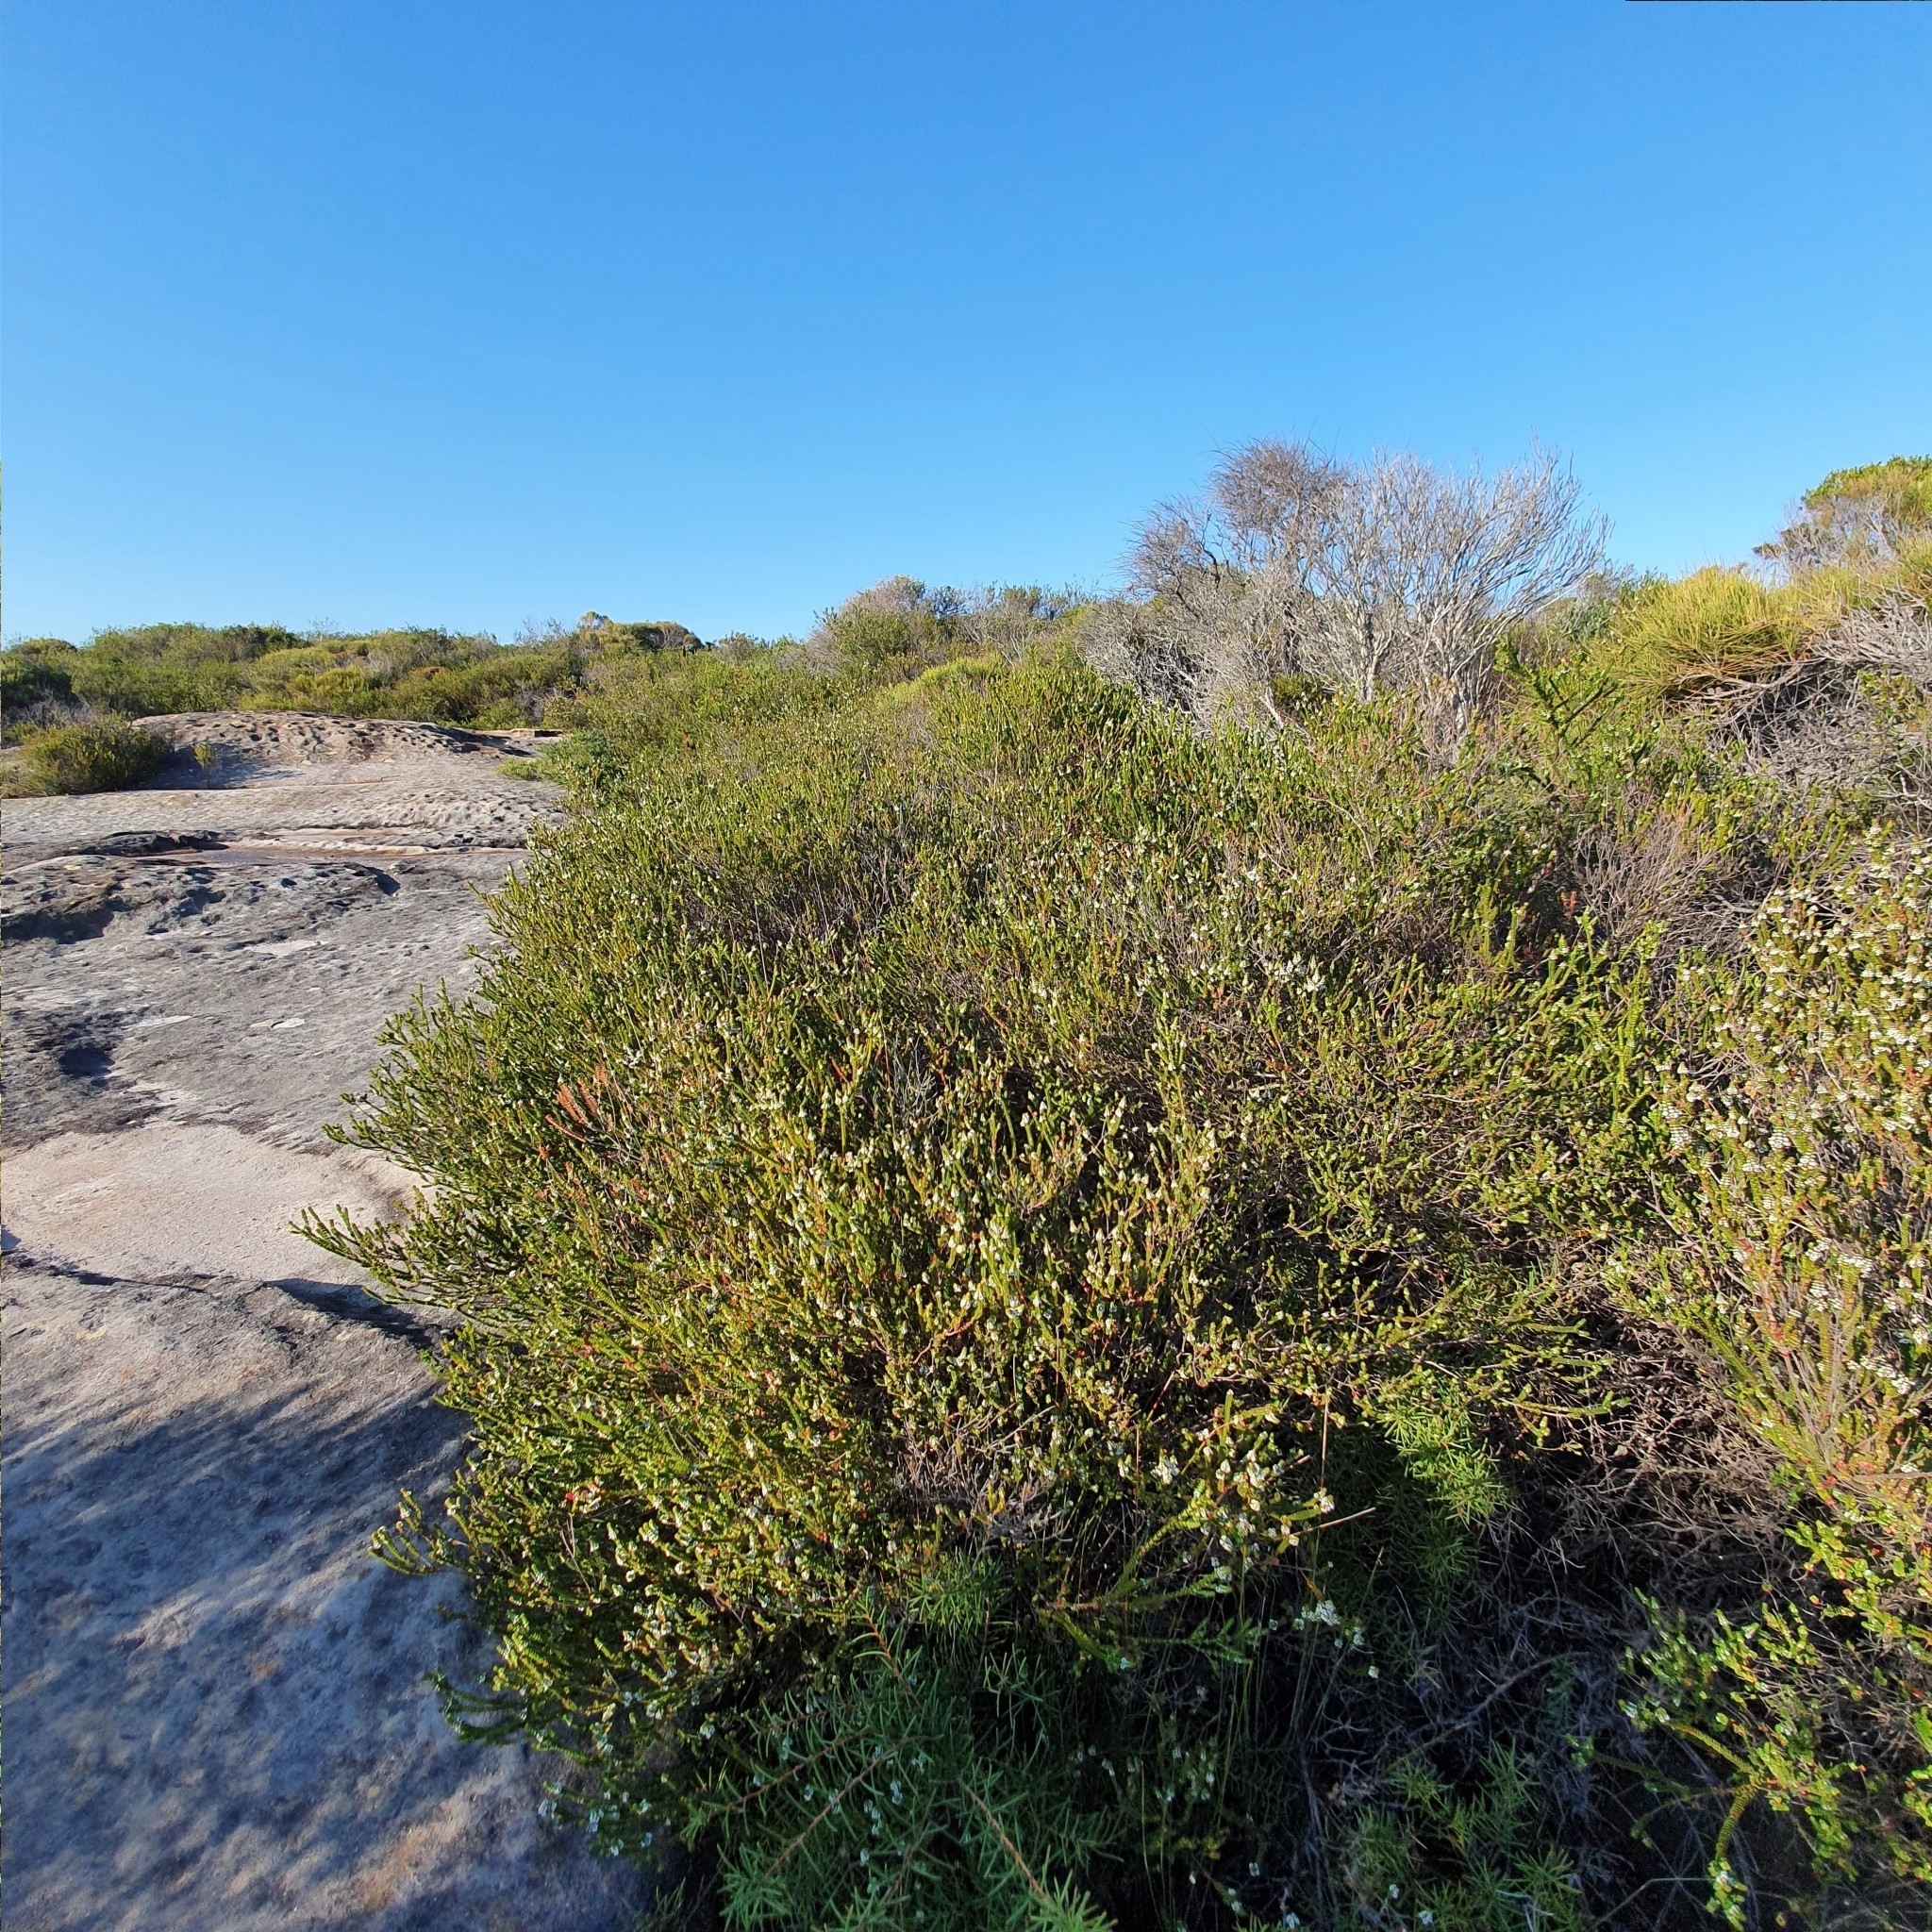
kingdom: Plantae
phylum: Tracheophyta
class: Magnoliopsida
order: Myrtales
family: Myrtaceae
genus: Baeckea
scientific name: Baeckea imbricata
